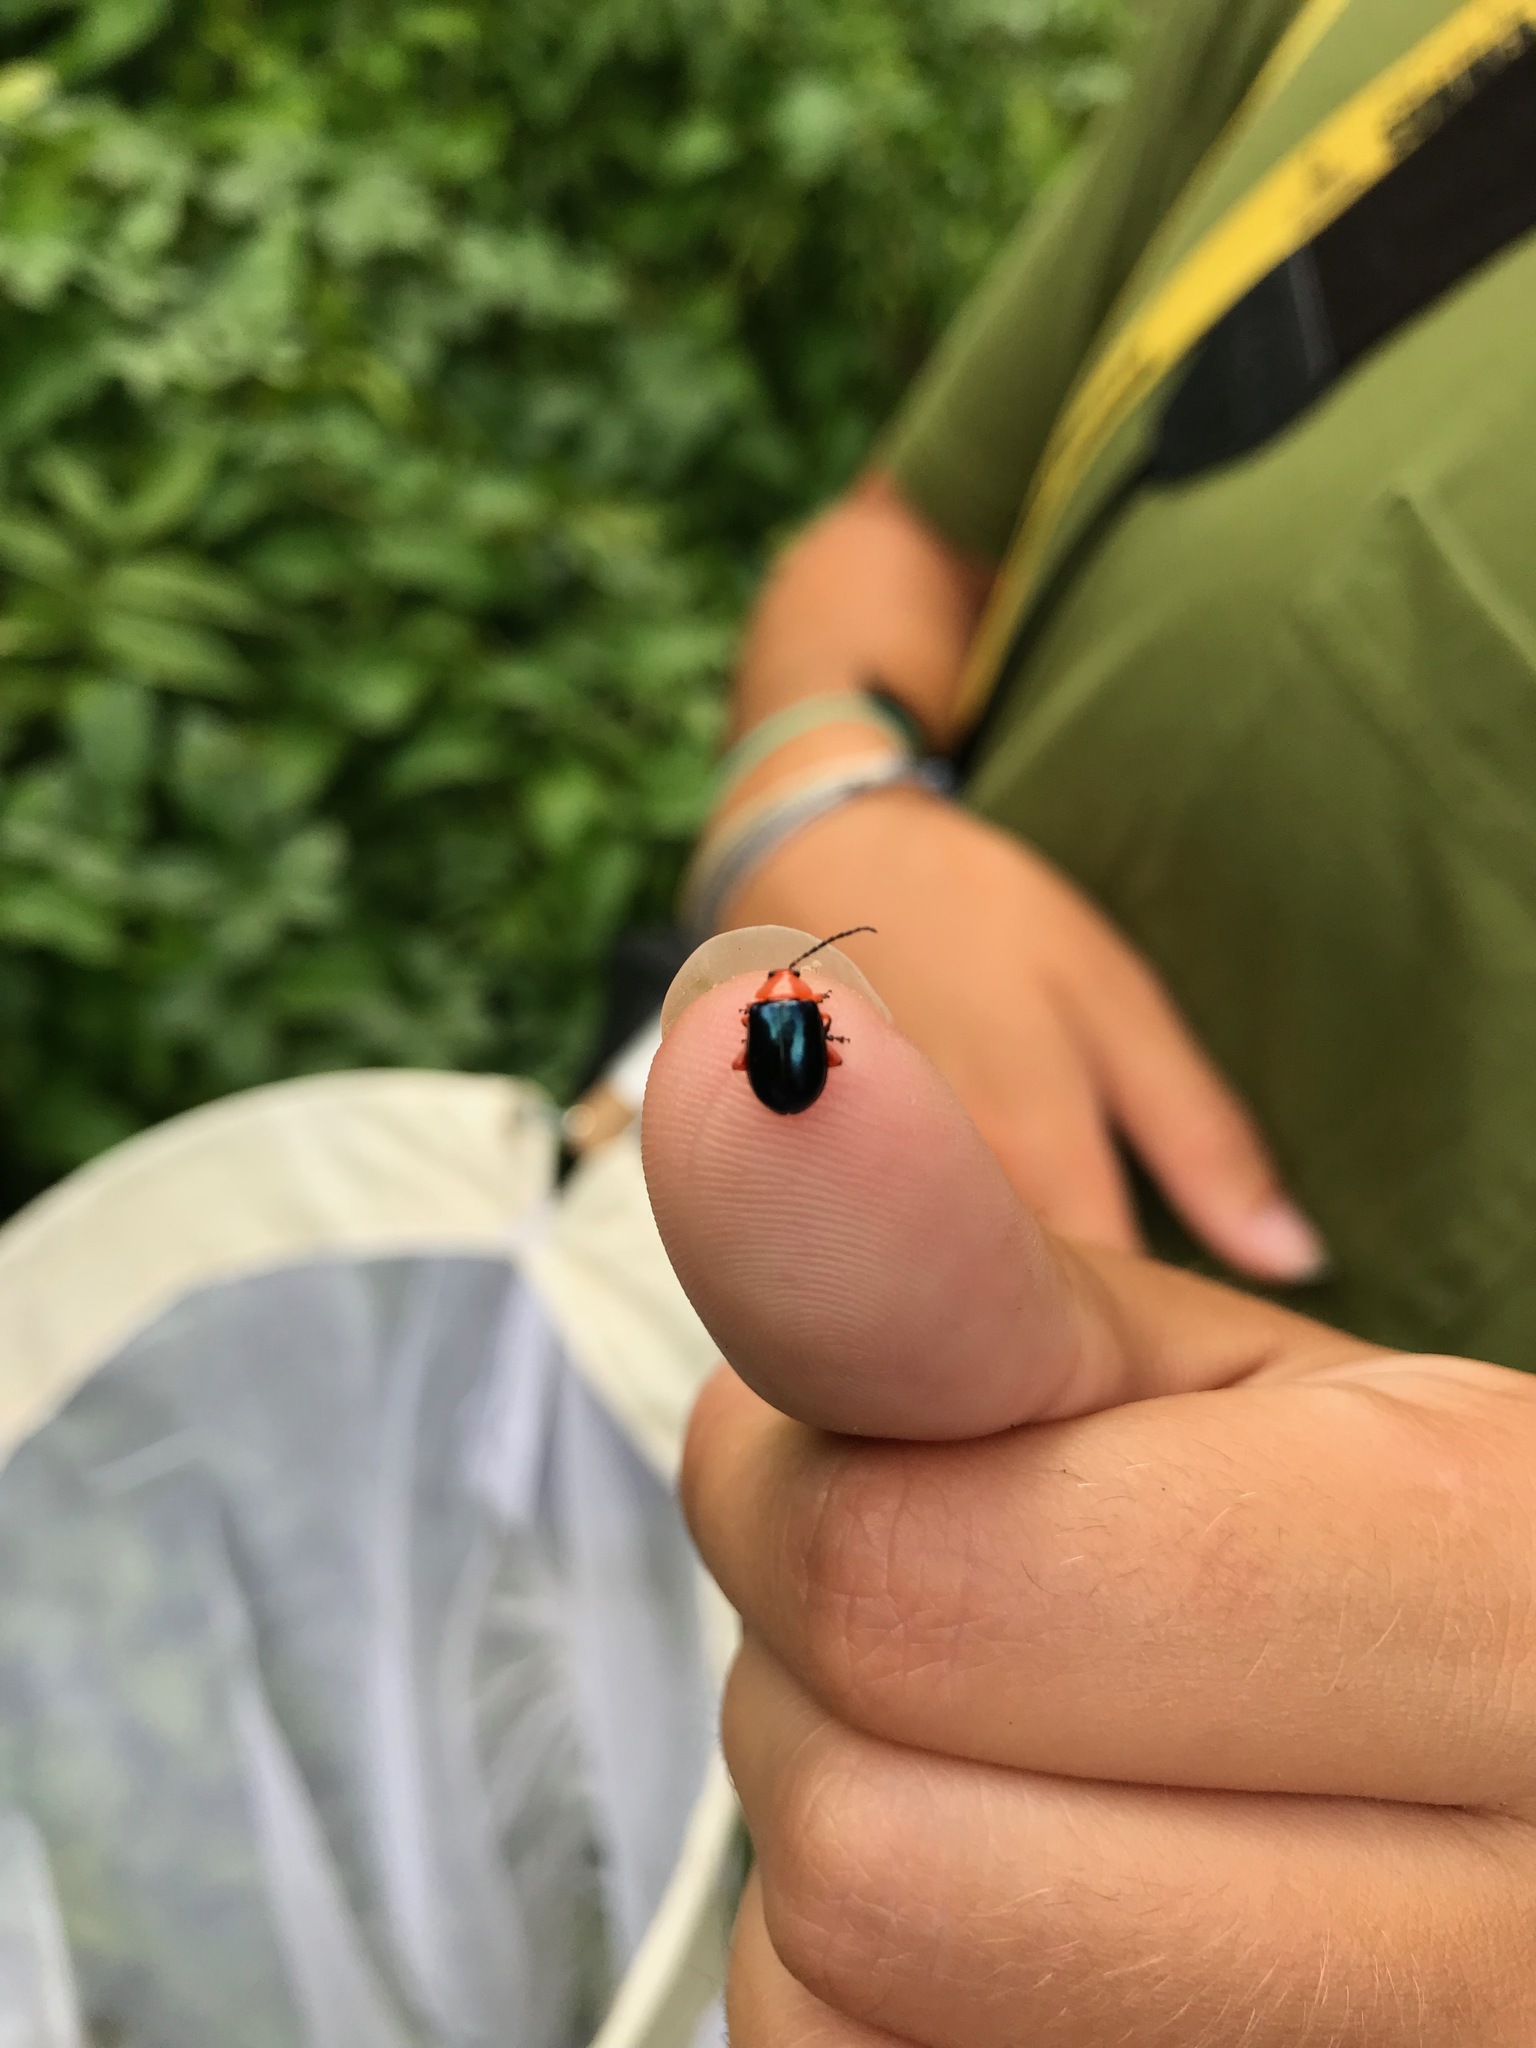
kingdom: Animalia
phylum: Arthropoda
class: Insecta
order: Coleoptera
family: Chrysomelidae
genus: Asphaera
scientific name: Asphaera lustrans
